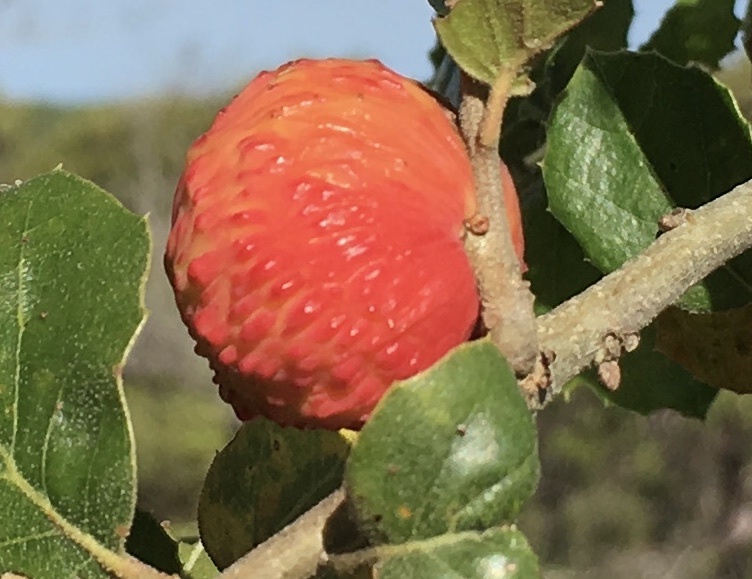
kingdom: Animalia
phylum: Arthropoda
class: Insecta
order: Hymenoptera
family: Cynipidae
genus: Amphibolips
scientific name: Amphibolips quercuspomiformis
